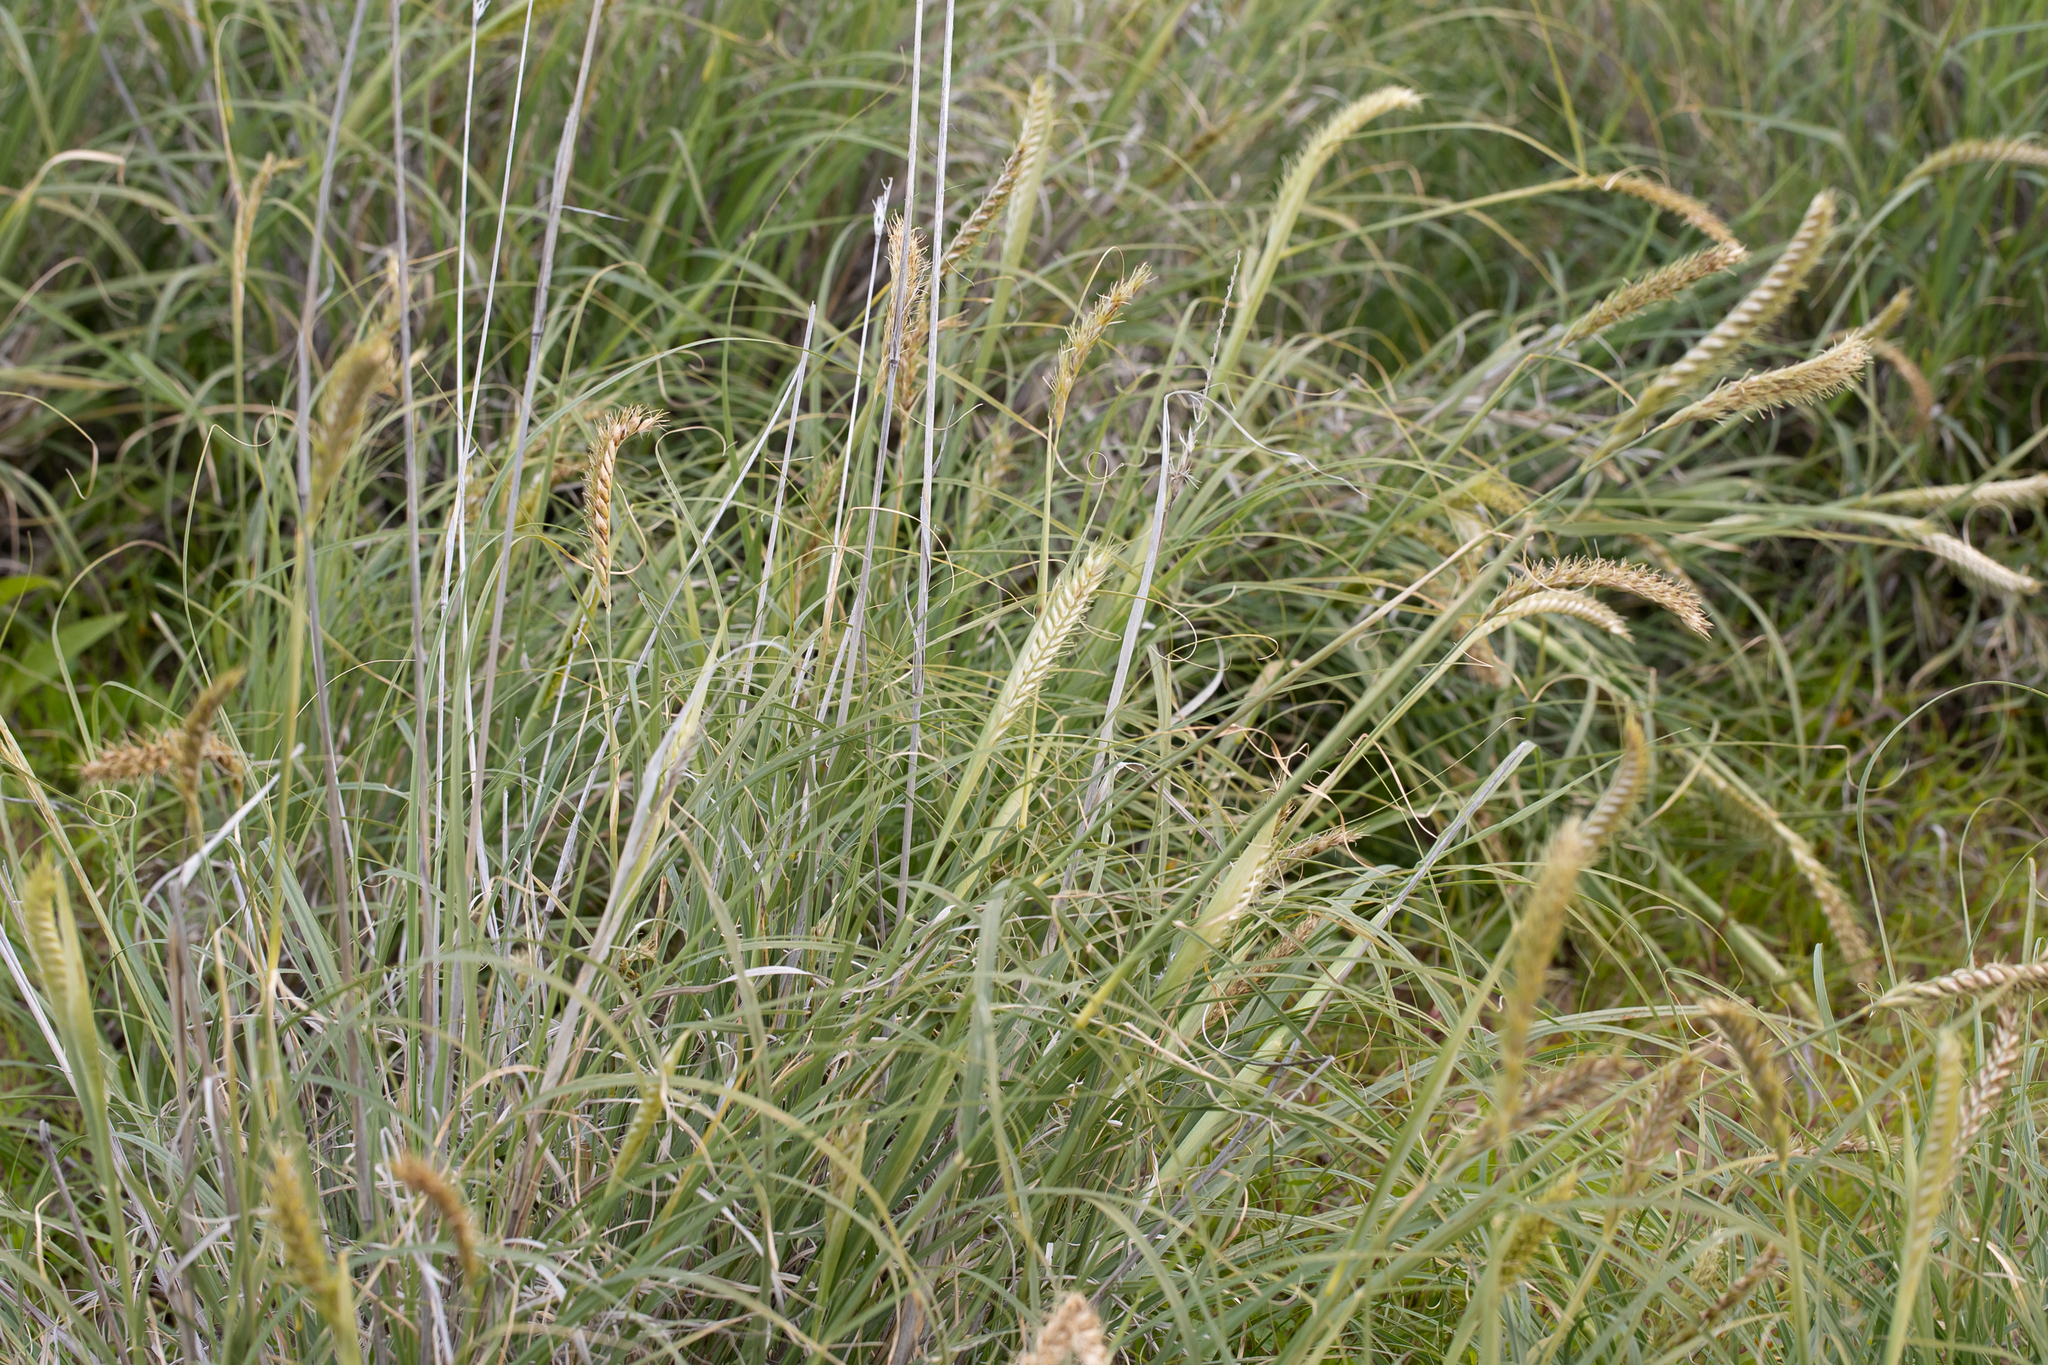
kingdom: Plantae
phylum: Tracheophyta
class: Liliopsida
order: Poales
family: Poaceae
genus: Astrebla
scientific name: Astrebla squarrosa
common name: Wheat-ear mitchell grass
